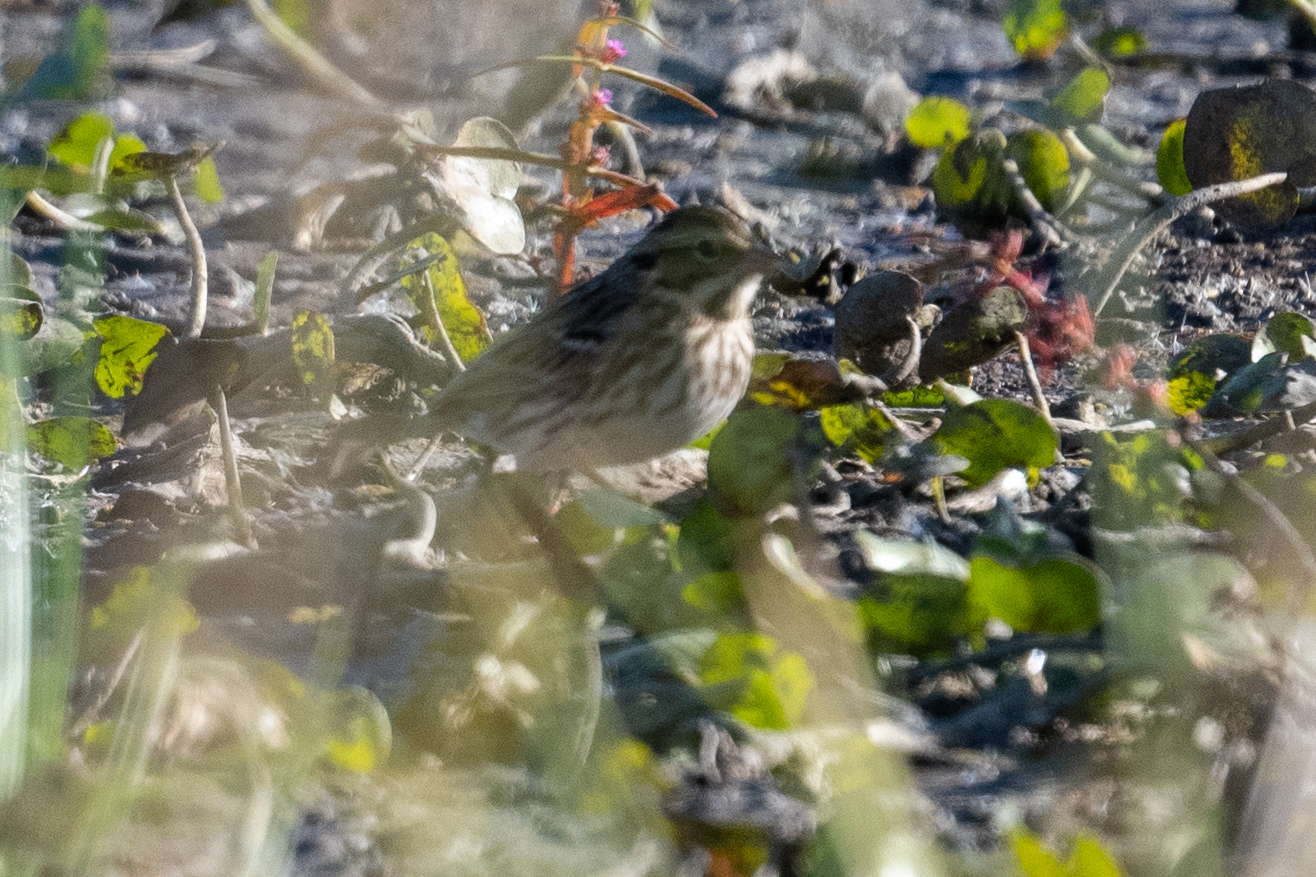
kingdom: Animalia
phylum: Chordata
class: Aves
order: Passeriformes
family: Passerellidae
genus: Passerculus
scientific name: Passerculus sandwichensis
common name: Savannah sparrow
